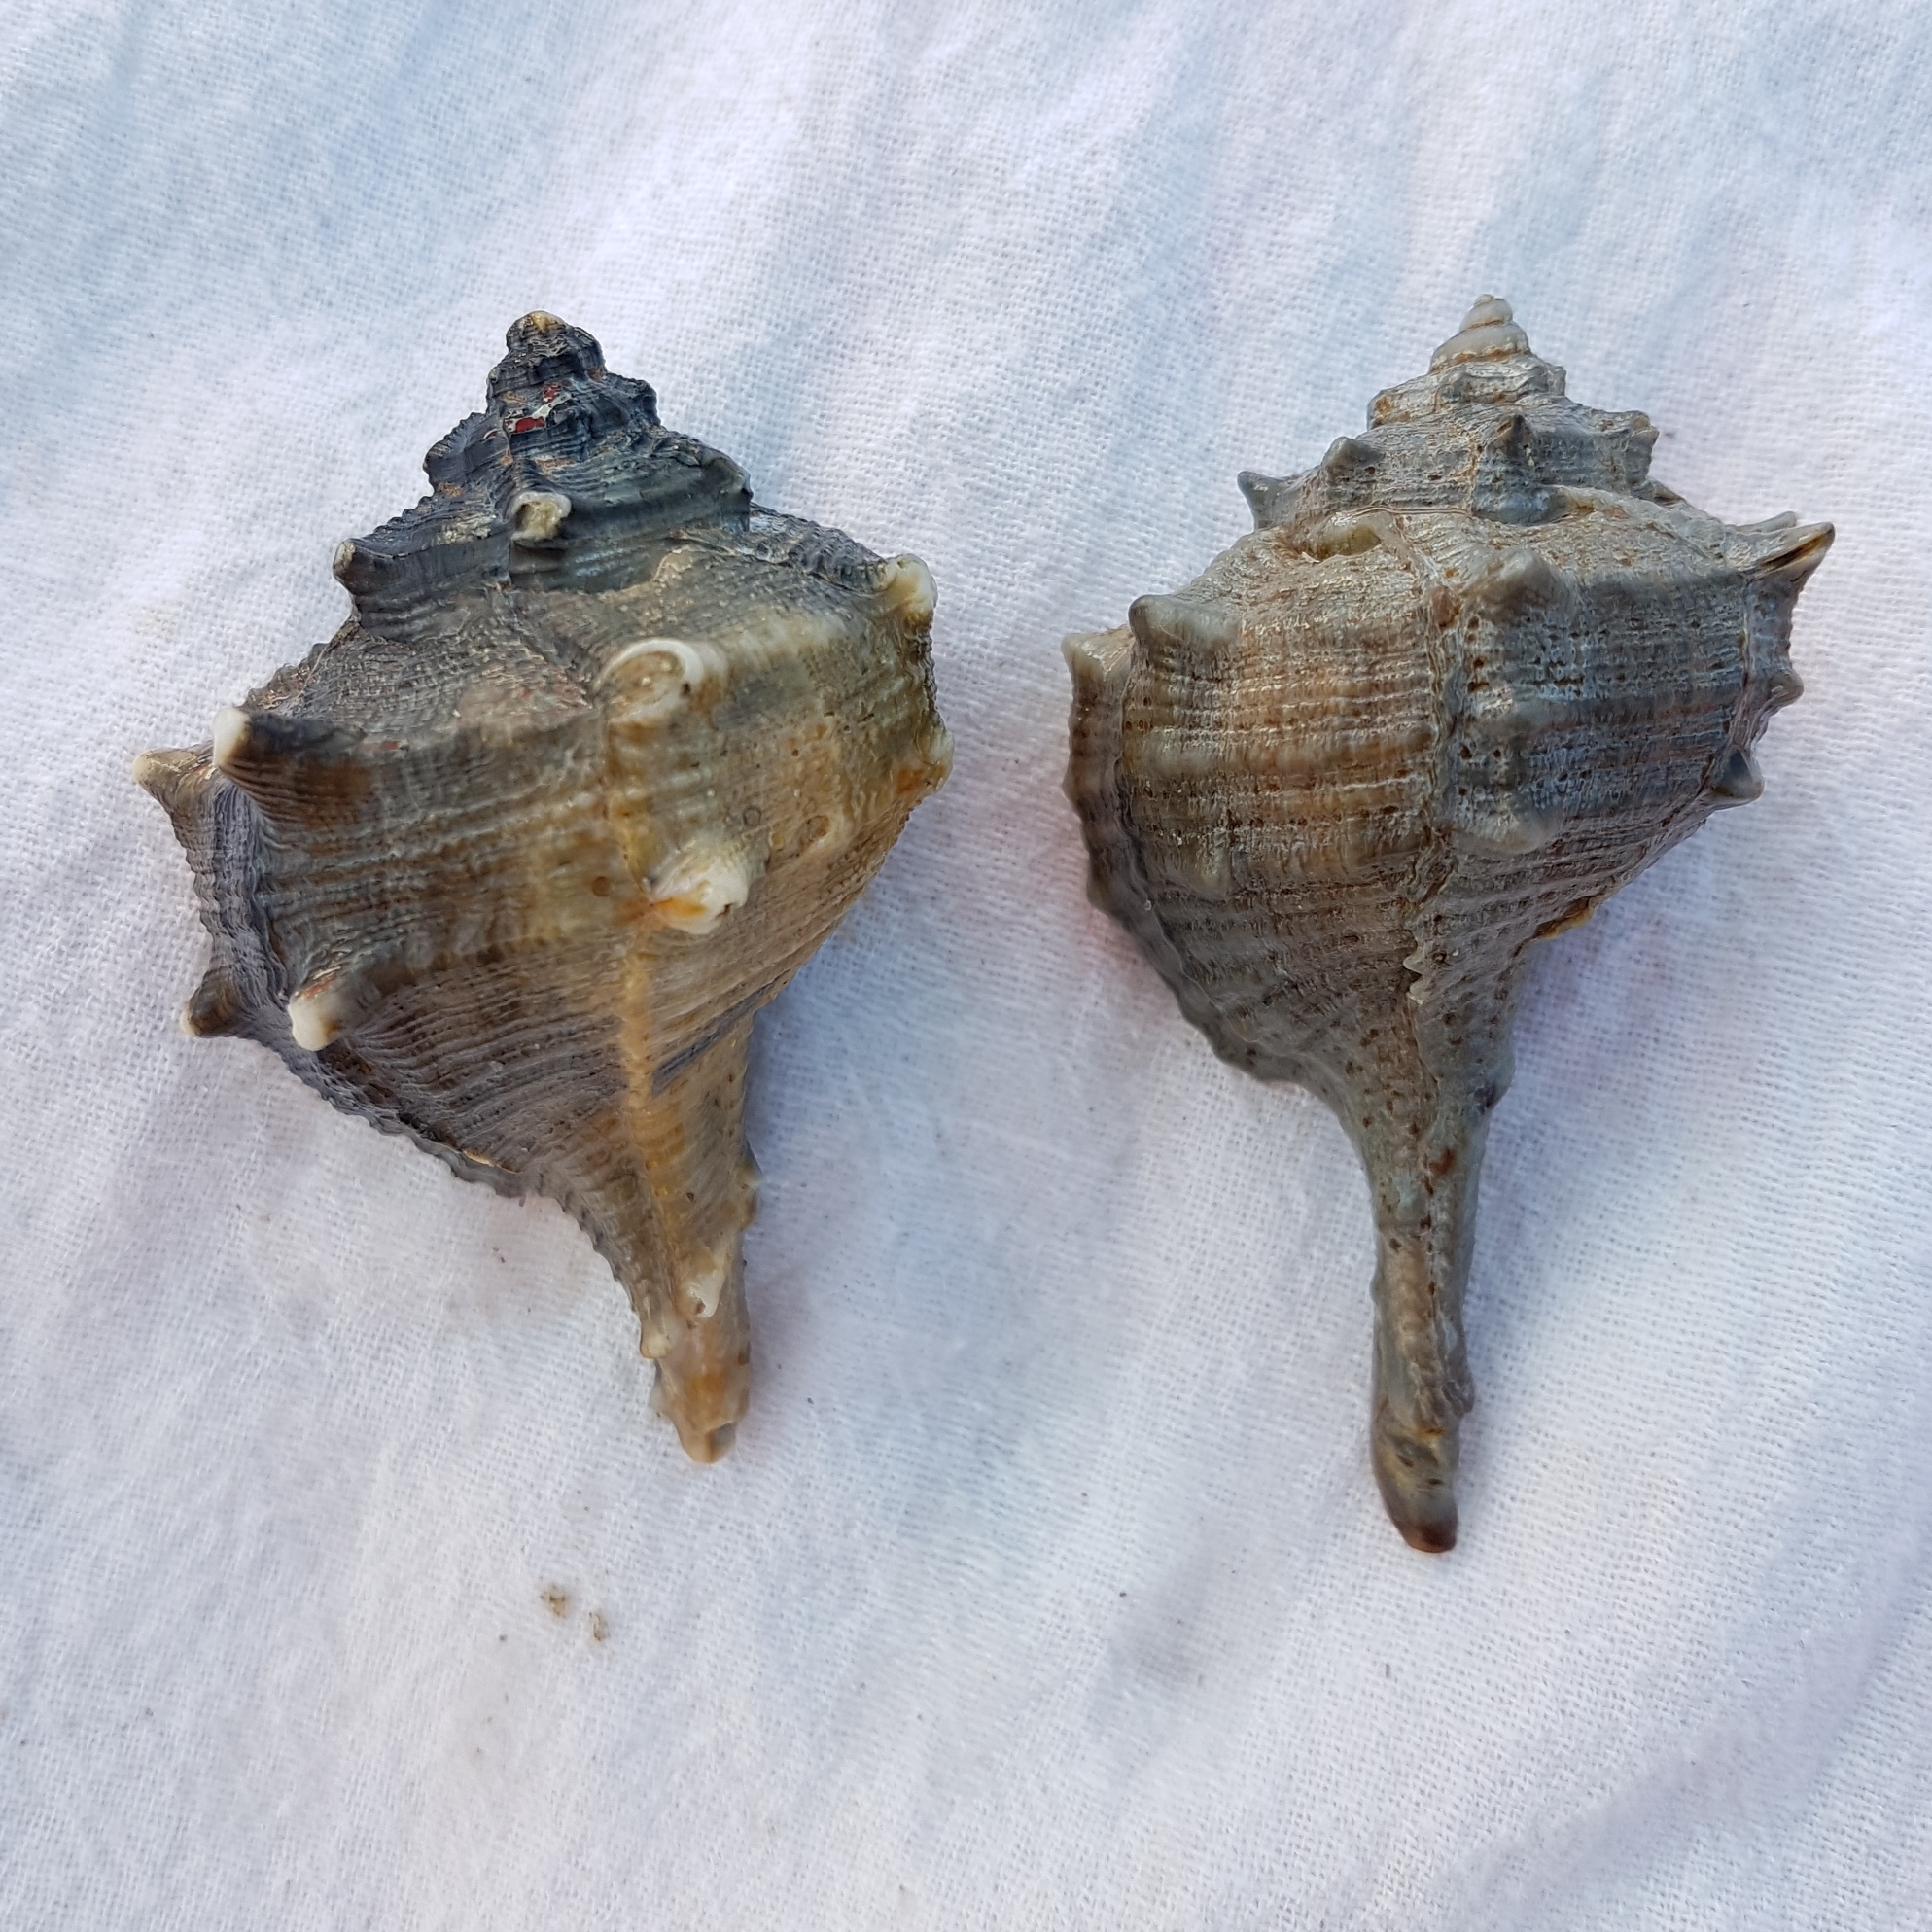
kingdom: Animalia
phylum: Mollusca
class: Gastropoda
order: Neogastropoda
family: Muricidae
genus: Bolinus
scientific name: Bolinus brandaris
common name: Dye murex
